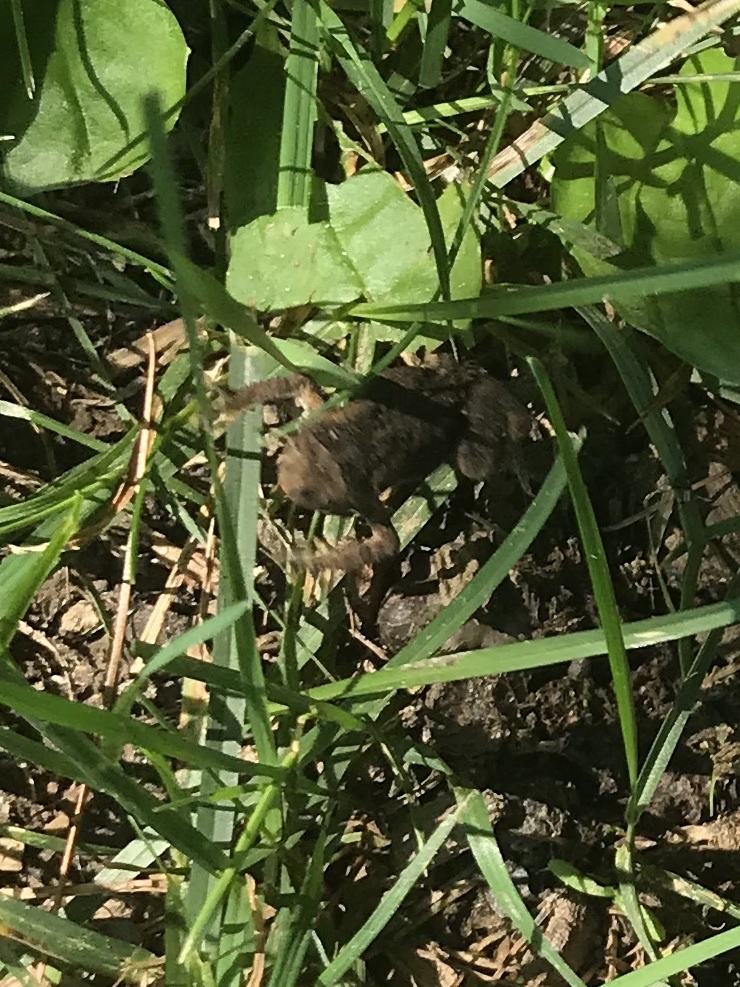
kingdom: Animalia
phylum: Chordata
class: Amphibia
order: Anura
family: Bufonidae
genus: Anaxyrus
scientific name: Anaxyrus americanus
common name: American toad
